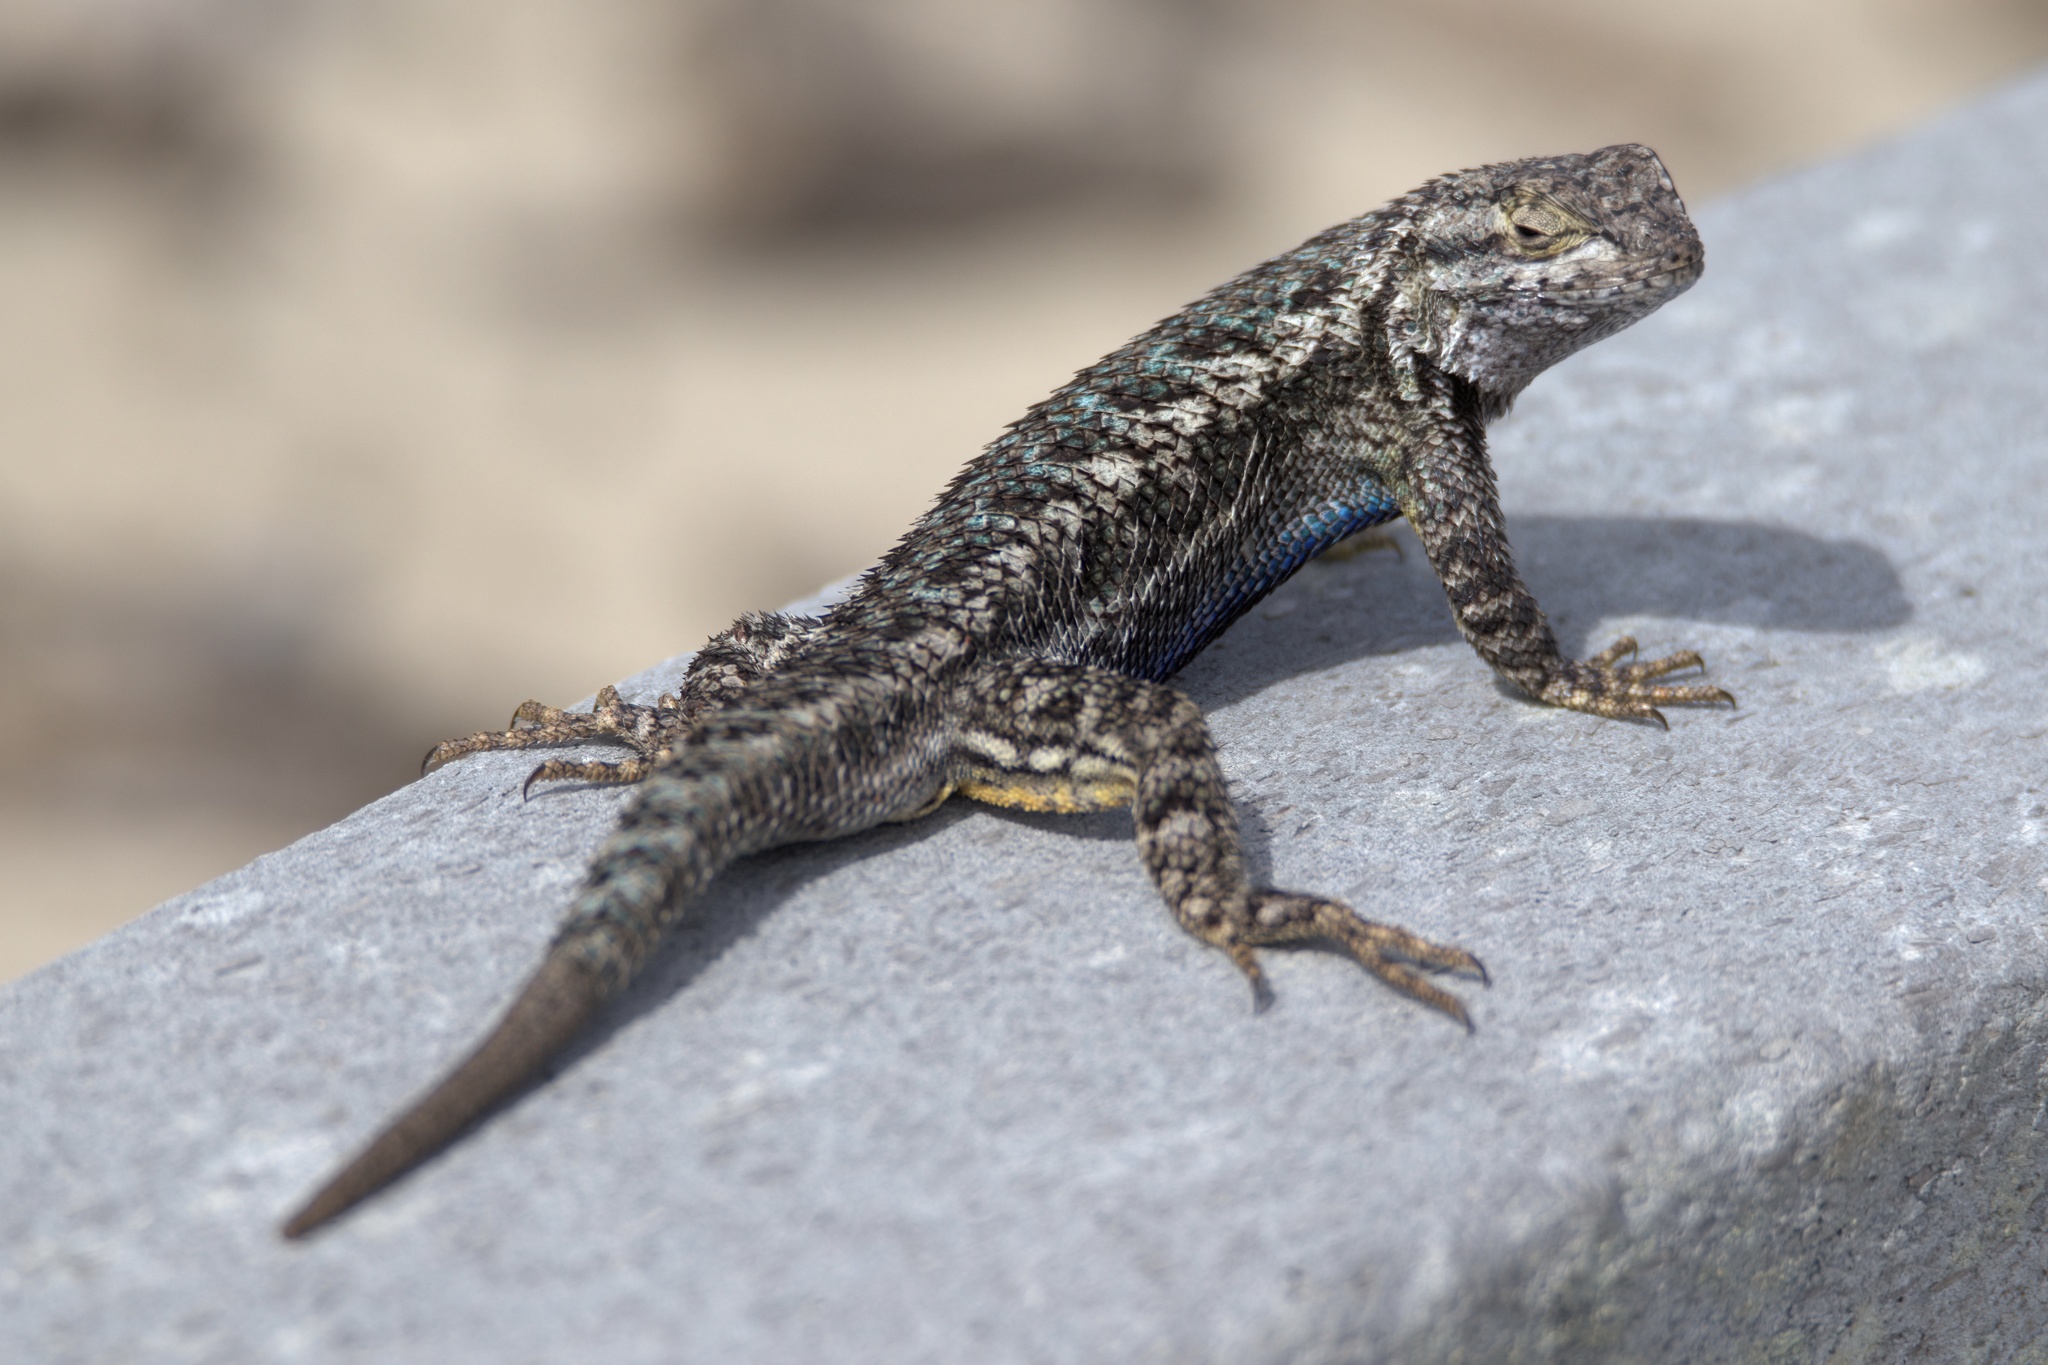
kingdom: Animalia
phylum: Chordata
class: Squamata
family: Phrynosomatidae
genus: Sceloporus
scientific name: Sceloporus occidentalis
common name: Western fence lizard
